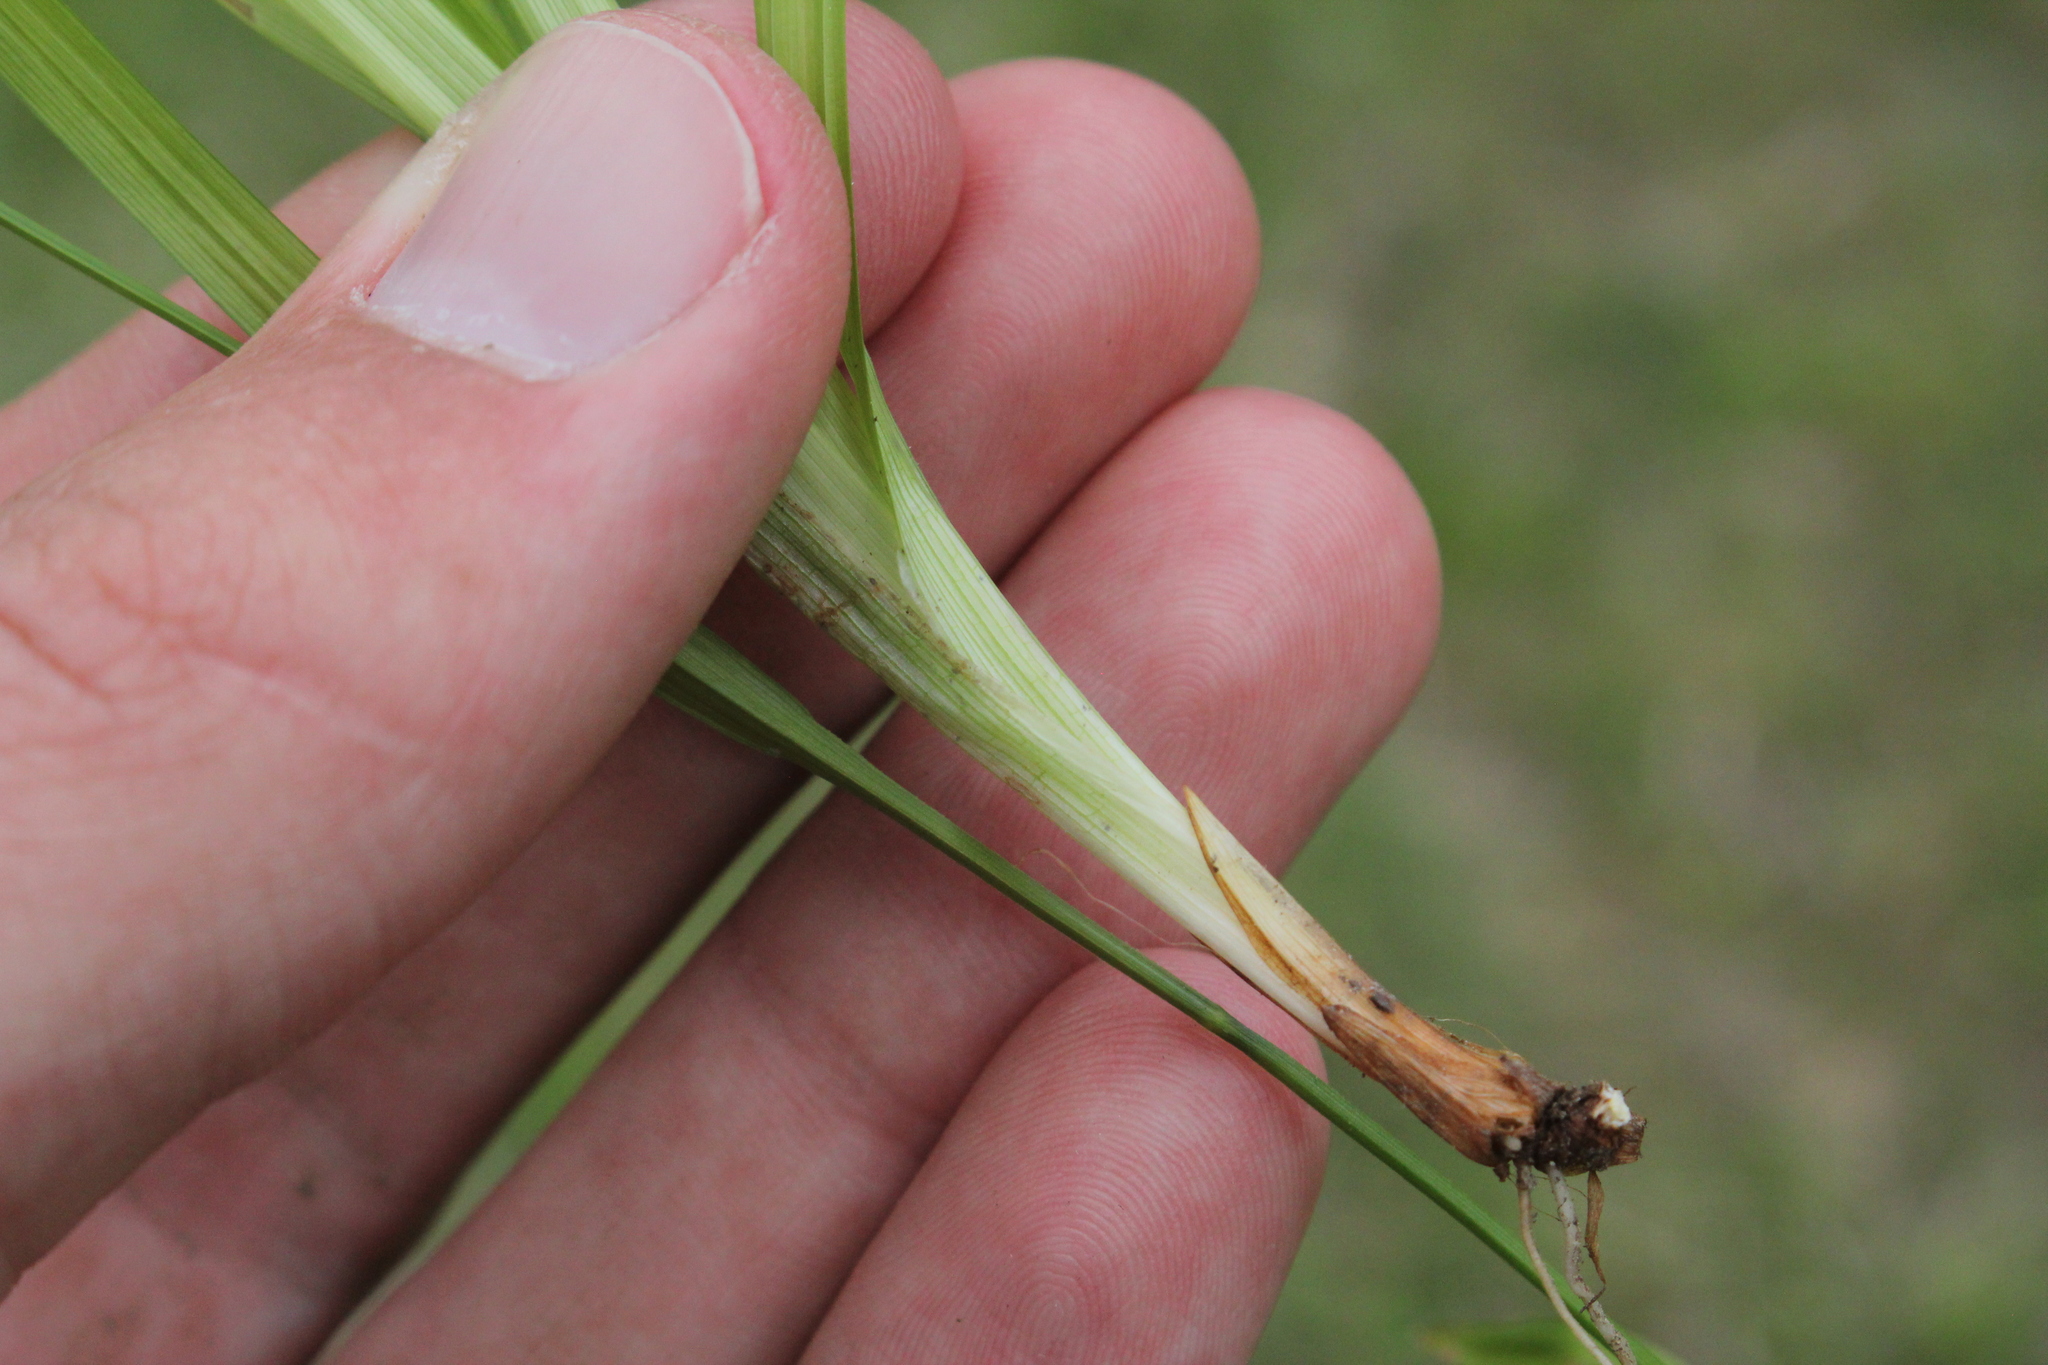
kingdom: Plantae
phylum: Tracheophyta
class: Liliopsida
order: Poales
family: Cyperaceae
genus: Carex
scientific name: Carex gracillima
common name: Graceful sedge
